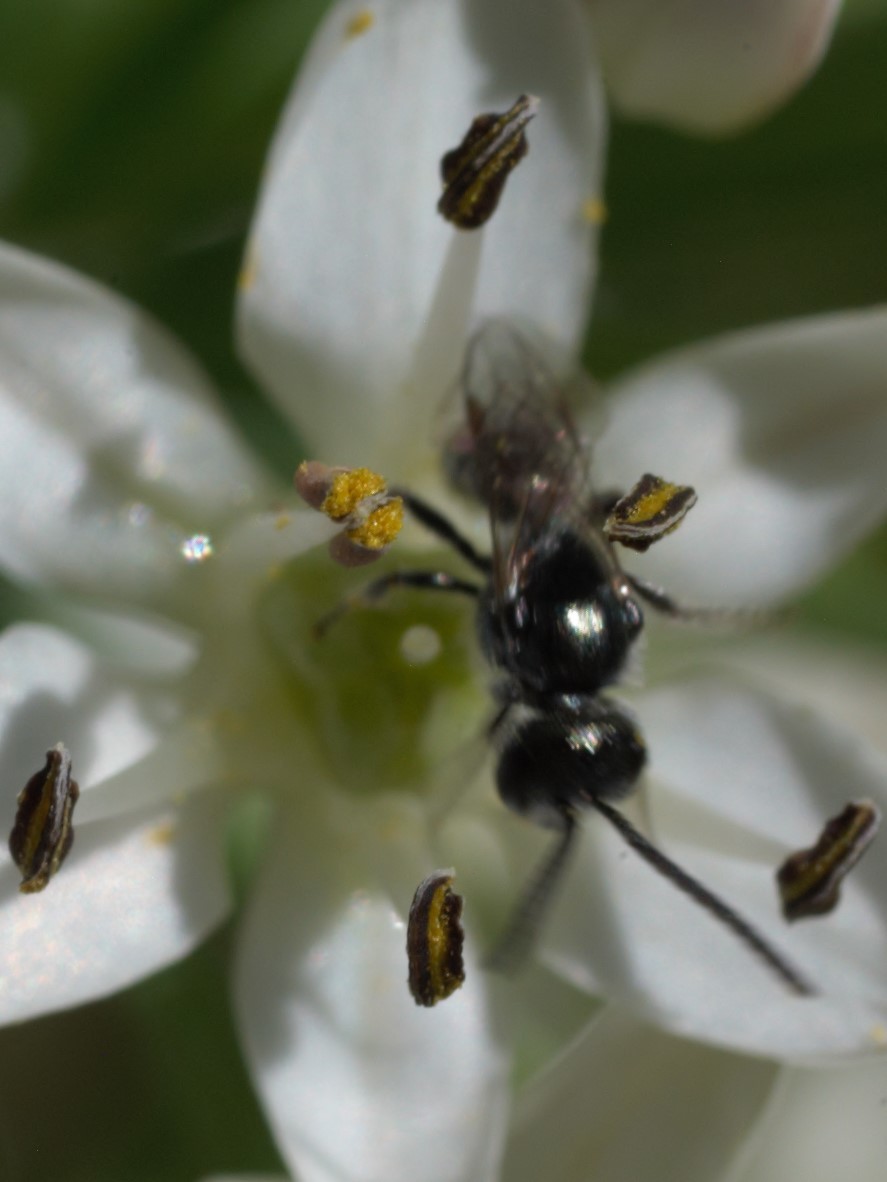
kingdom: Animalia
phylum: Arthropoda
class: Insecta
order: Hymenoptera
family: Halictidae
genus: Dialictus
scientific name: Dialictus
